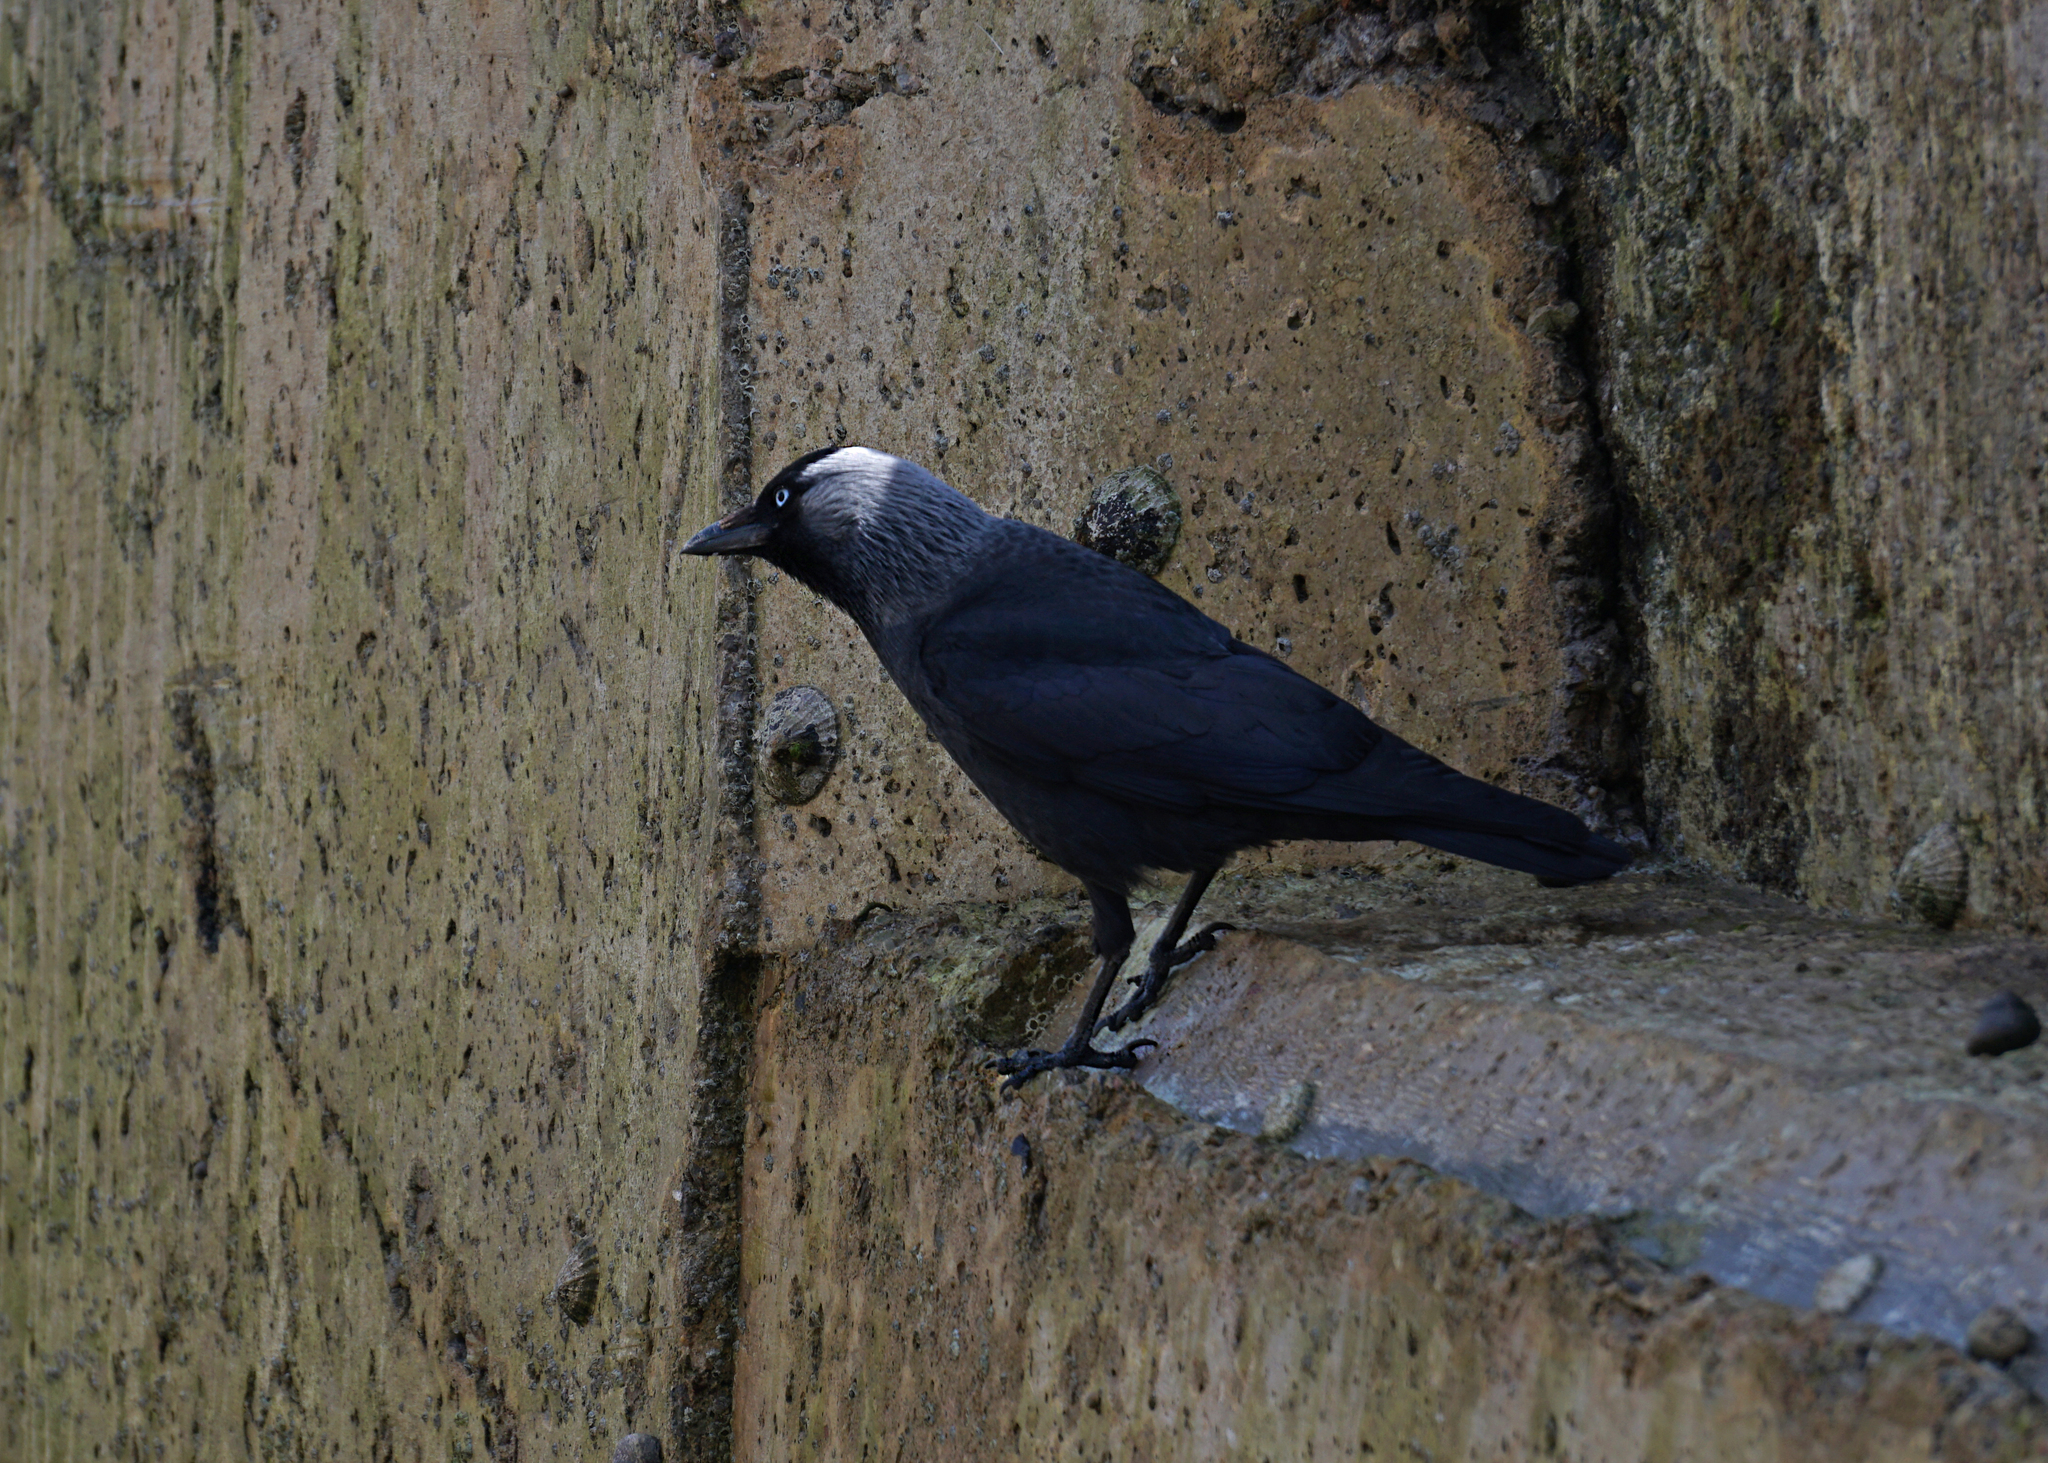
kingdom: Animalia
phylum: Chordata
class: Aves
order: Passeriformes
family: Corvidae
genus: Coloeus
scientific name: Coloeus monedula
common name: Western jackdaw
